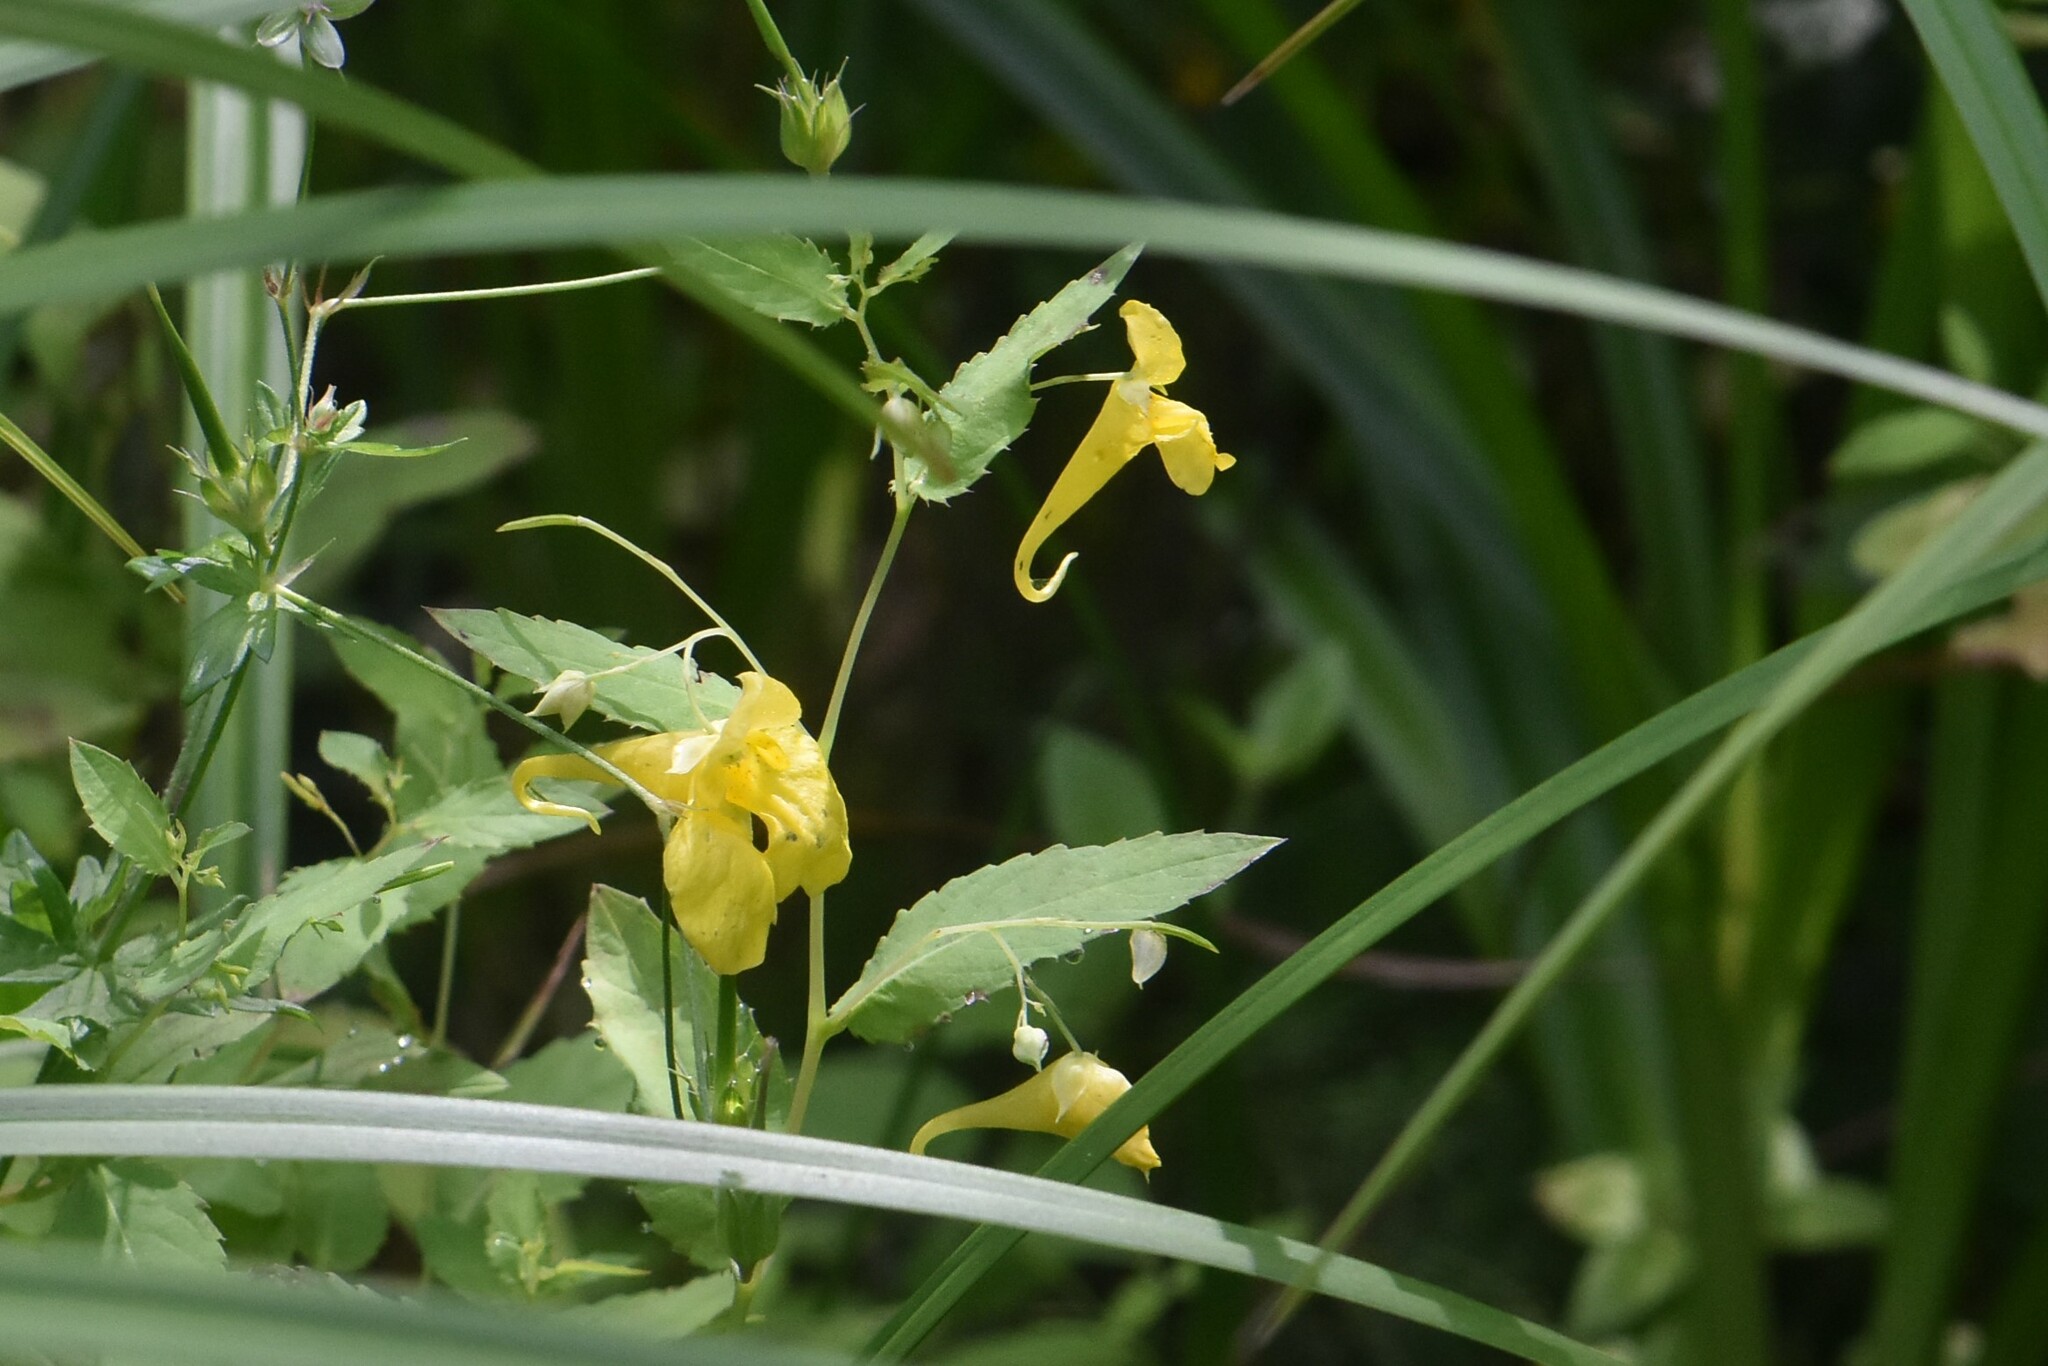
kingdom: Plantae
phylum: Tracheophyta
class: Magnoliopsida
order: Ericales
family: Balsaminaceae
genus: Impatiens
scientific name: Impatiens noli-tangere
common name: Touch-me-not balsam
